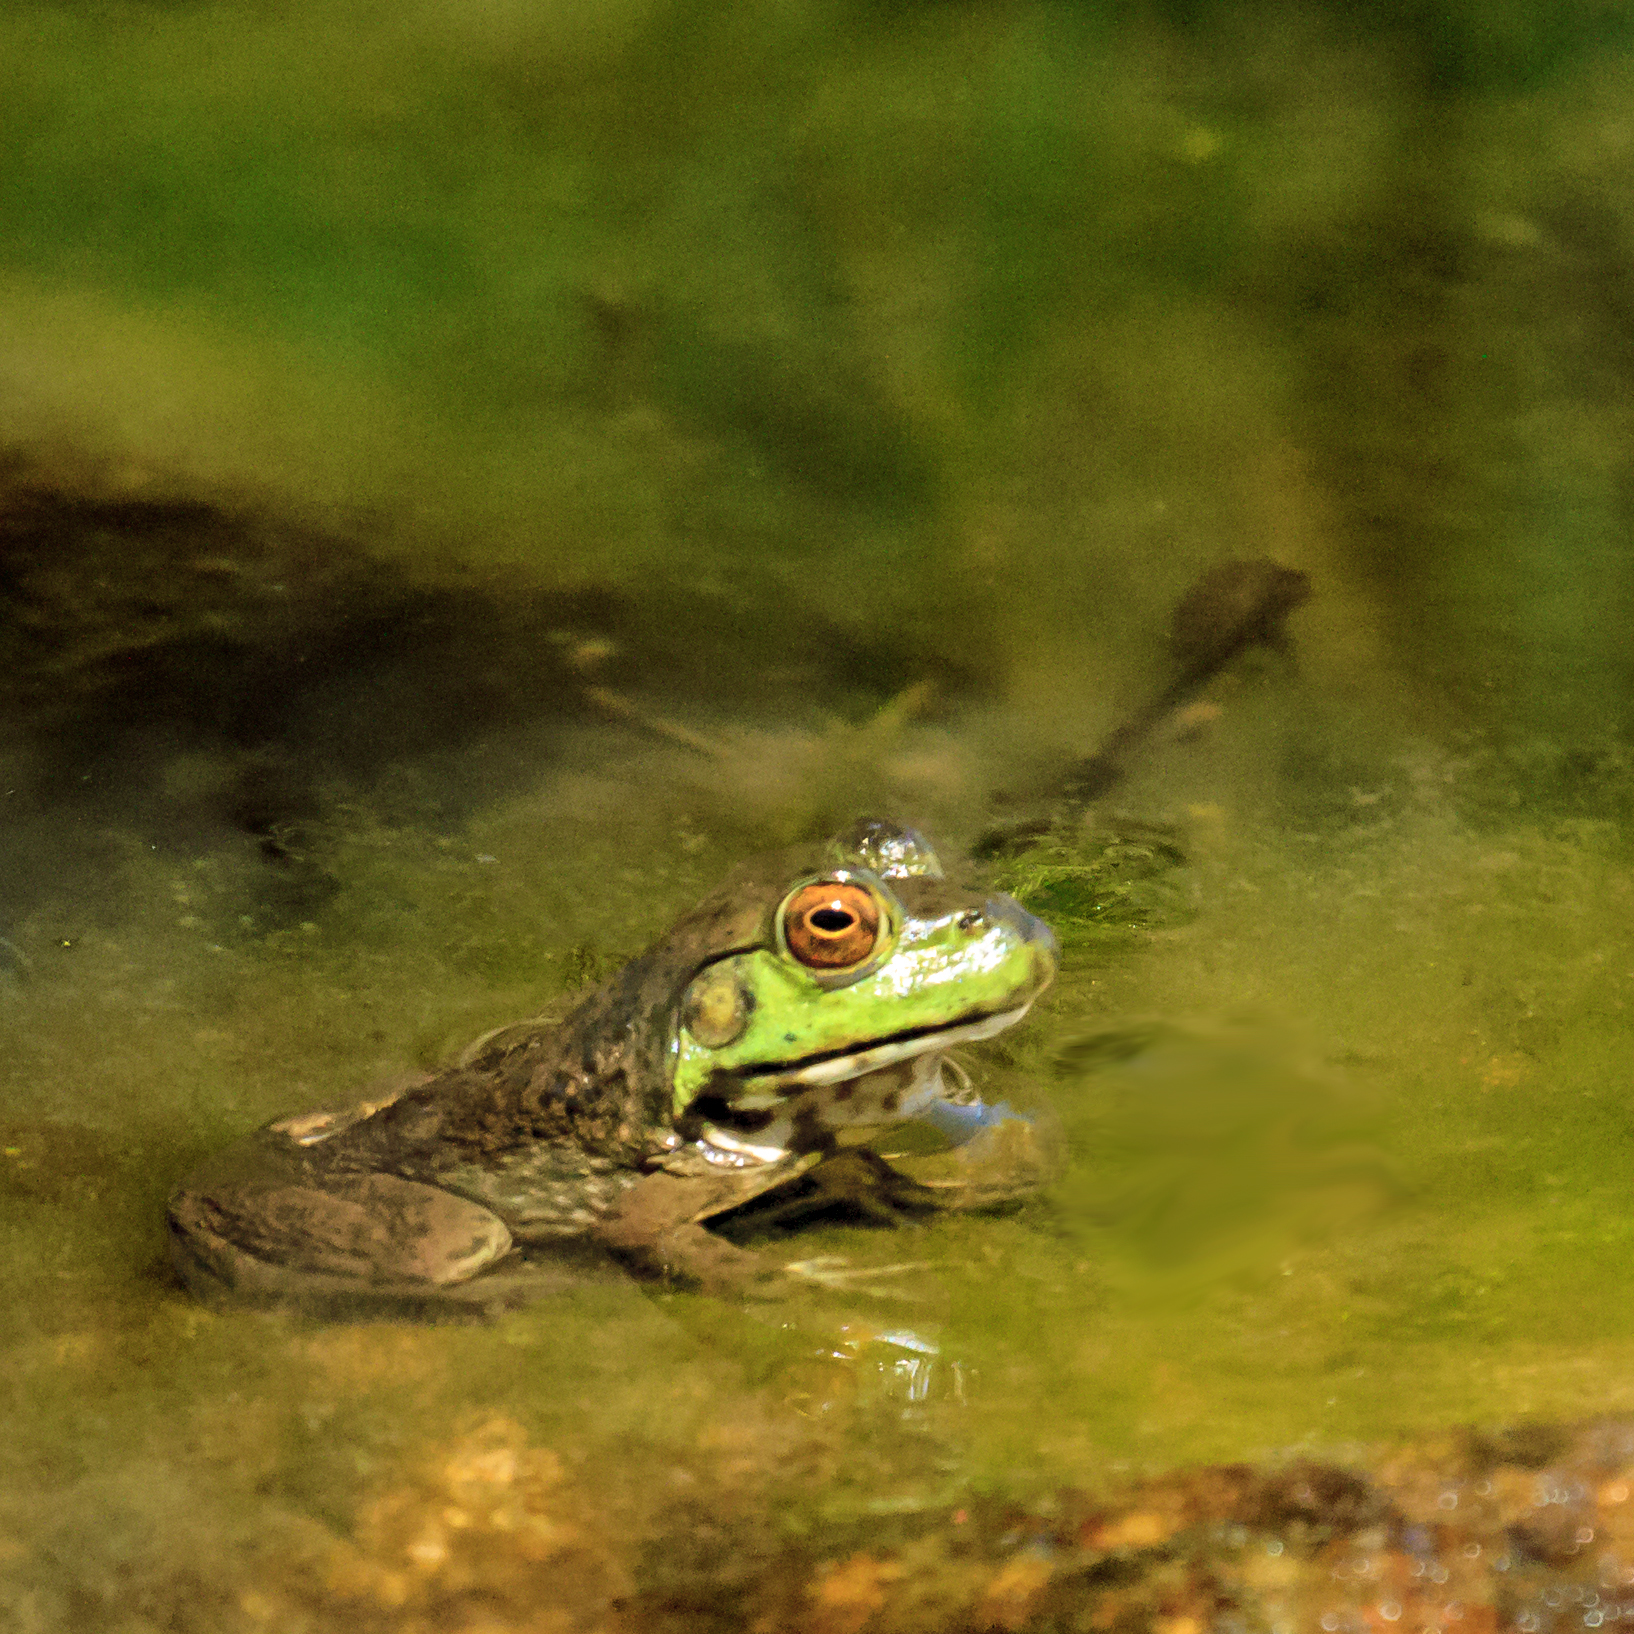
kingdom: Animalia
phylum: Chordata
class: Amphibia
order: Anura
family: Ranidae
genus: Lithobates
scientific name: Lithobates catesbeianus
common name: American bullfrog
